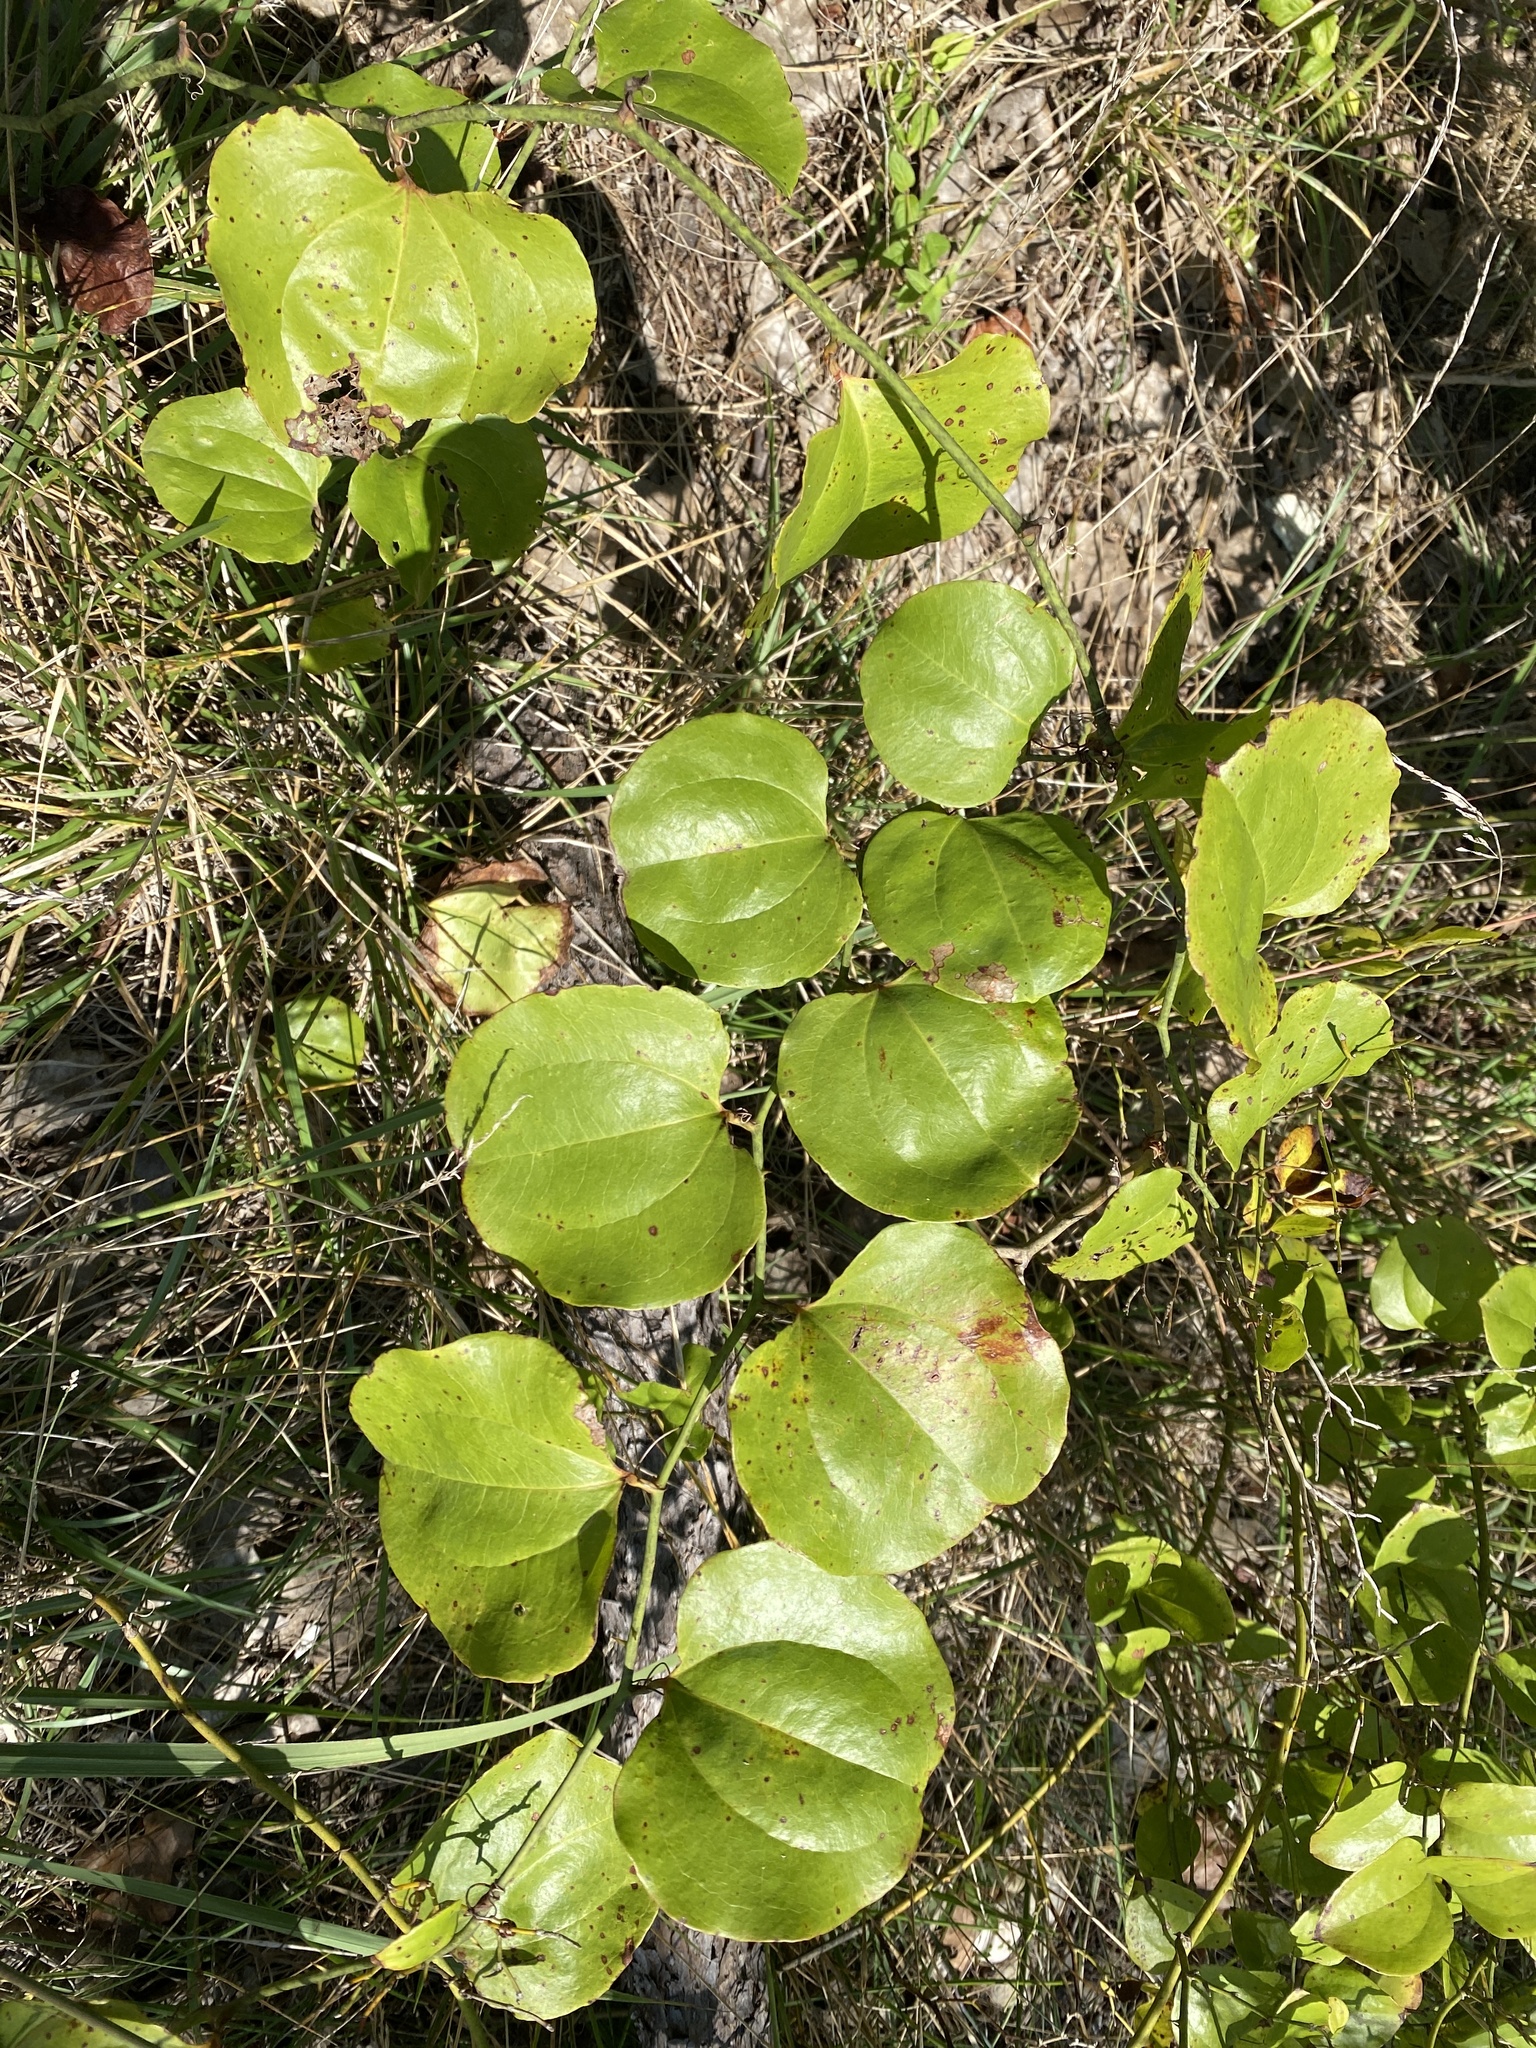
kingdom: Plantae
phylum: Tracheophyta
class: Liliopsida
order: Liliales
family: Smilacaceae
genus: Smilax
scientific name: Smilax rotundifolia
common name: Bullbriar
